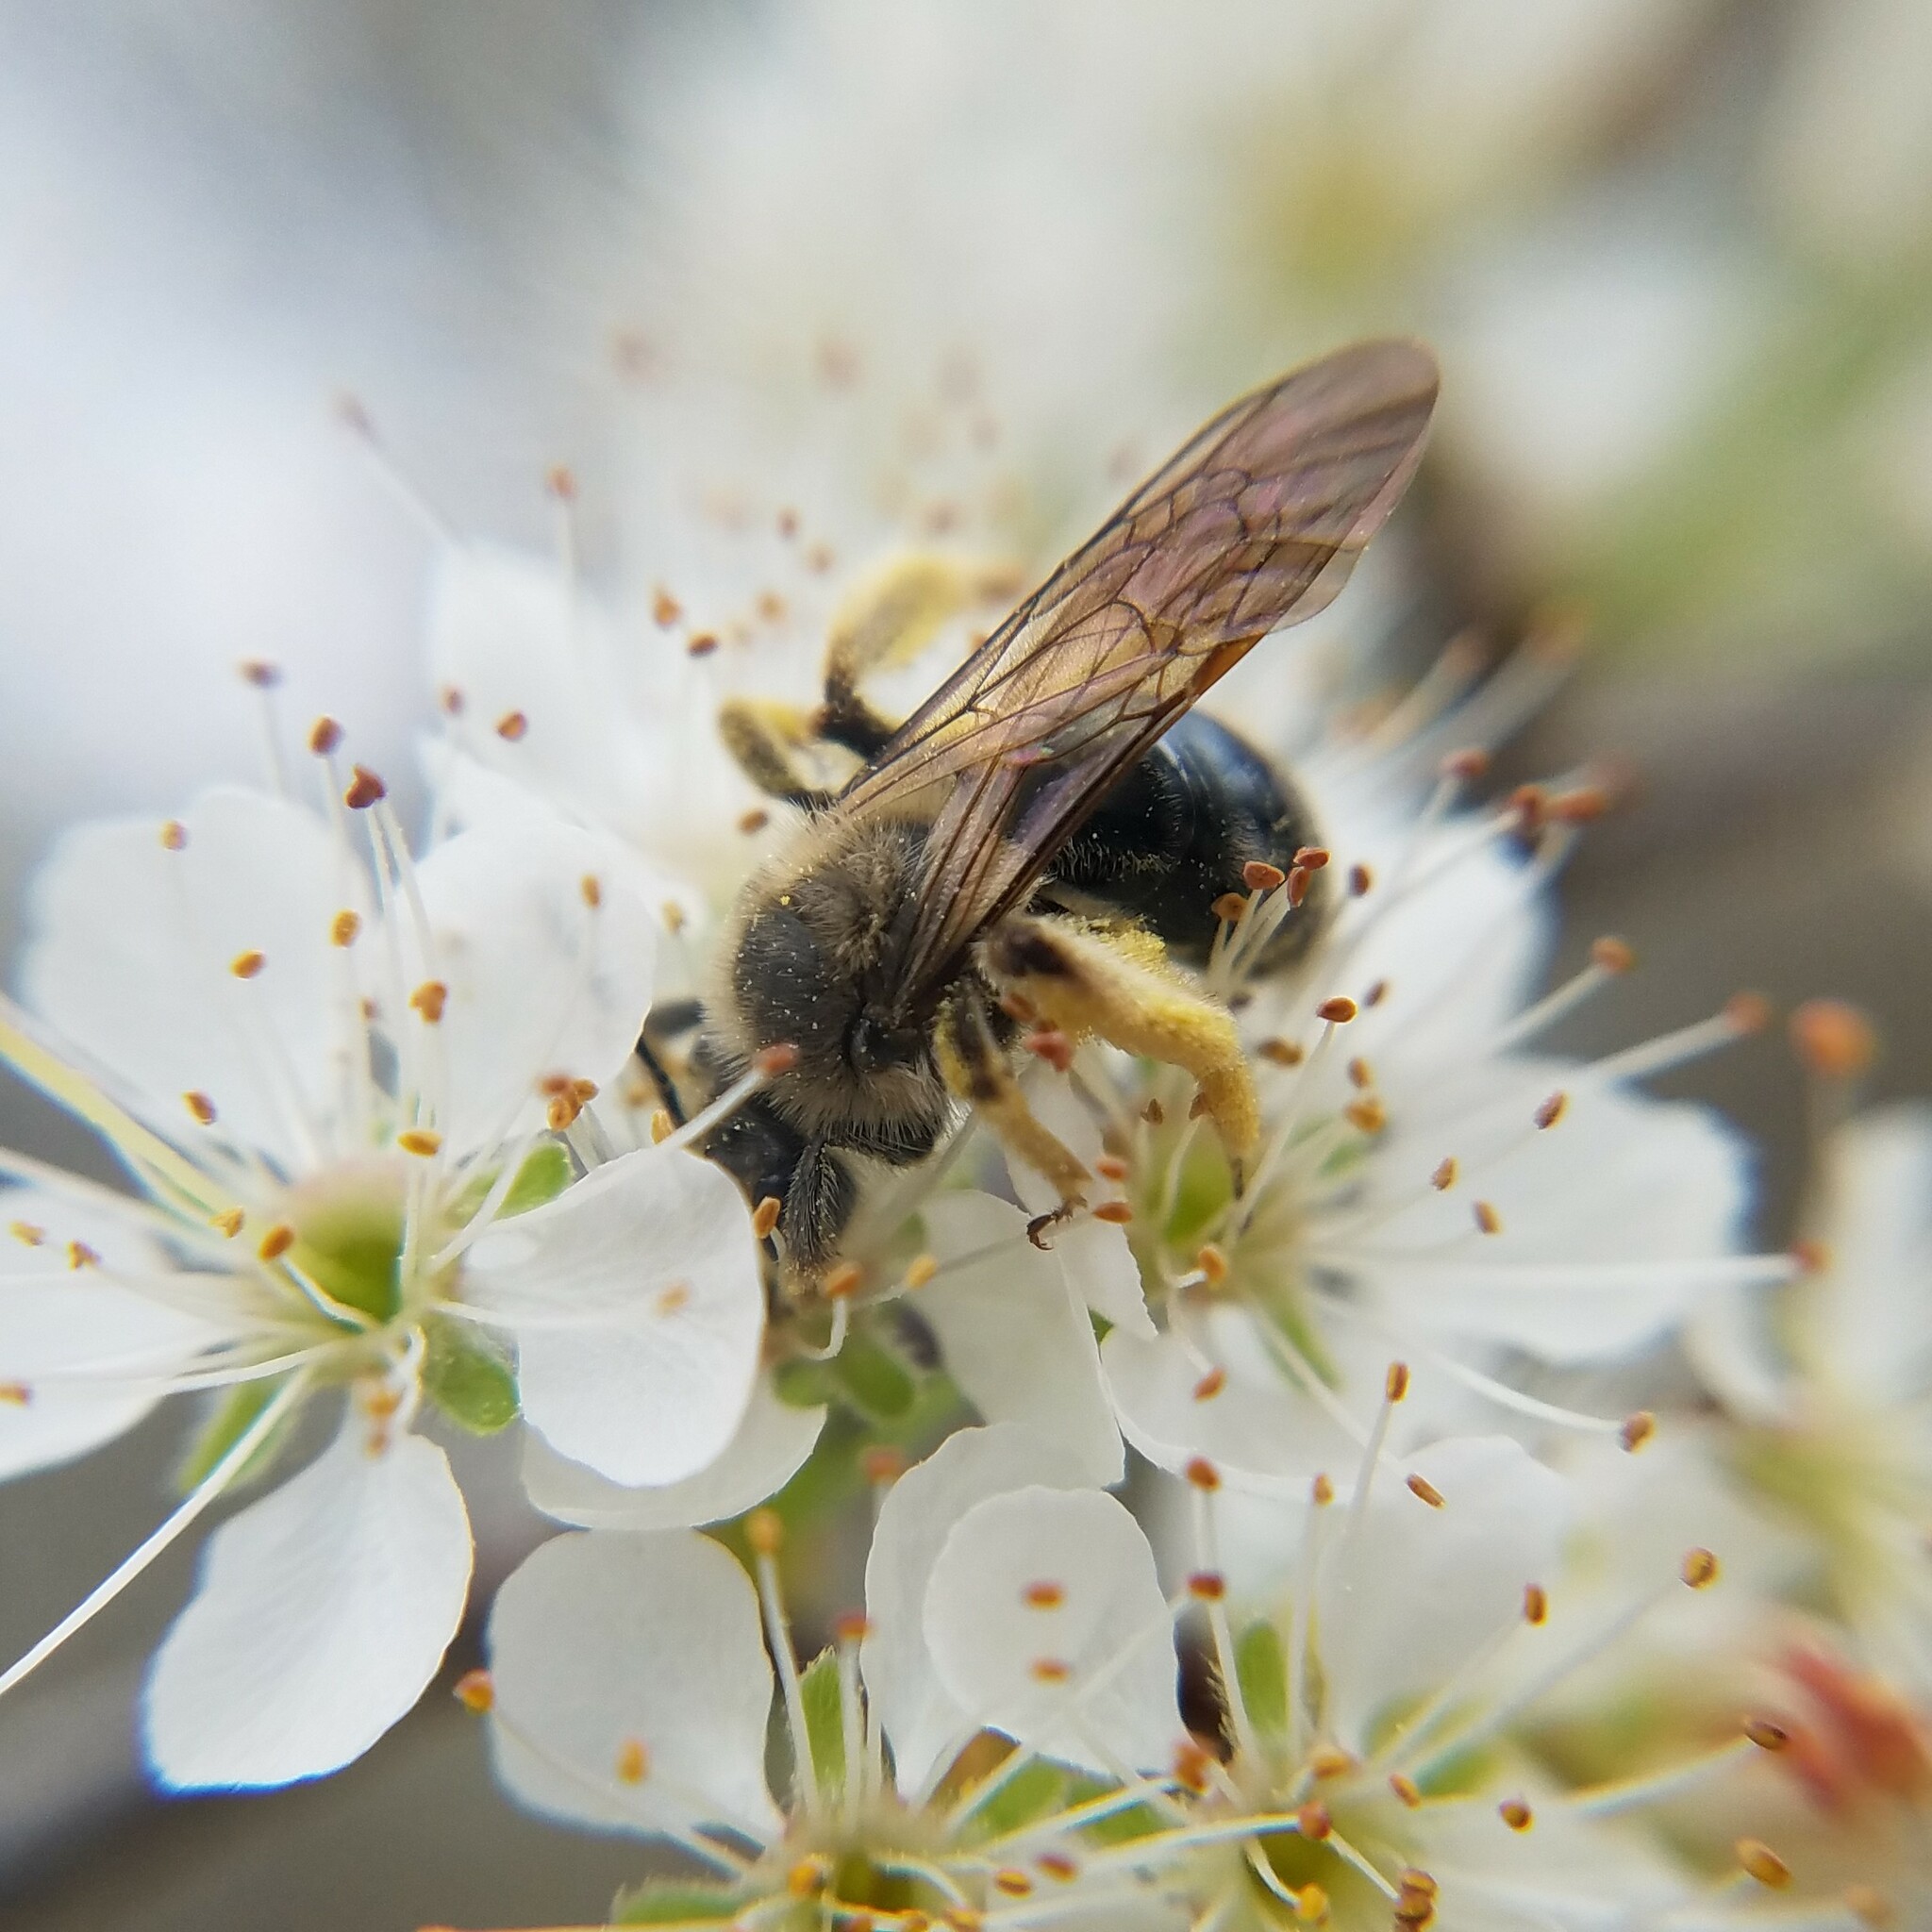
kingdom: Animalia
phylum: Arthropoda
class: Insecta
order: Hymenoptera
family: Andrenidae
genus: Andrena
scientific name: Andrena barbara
